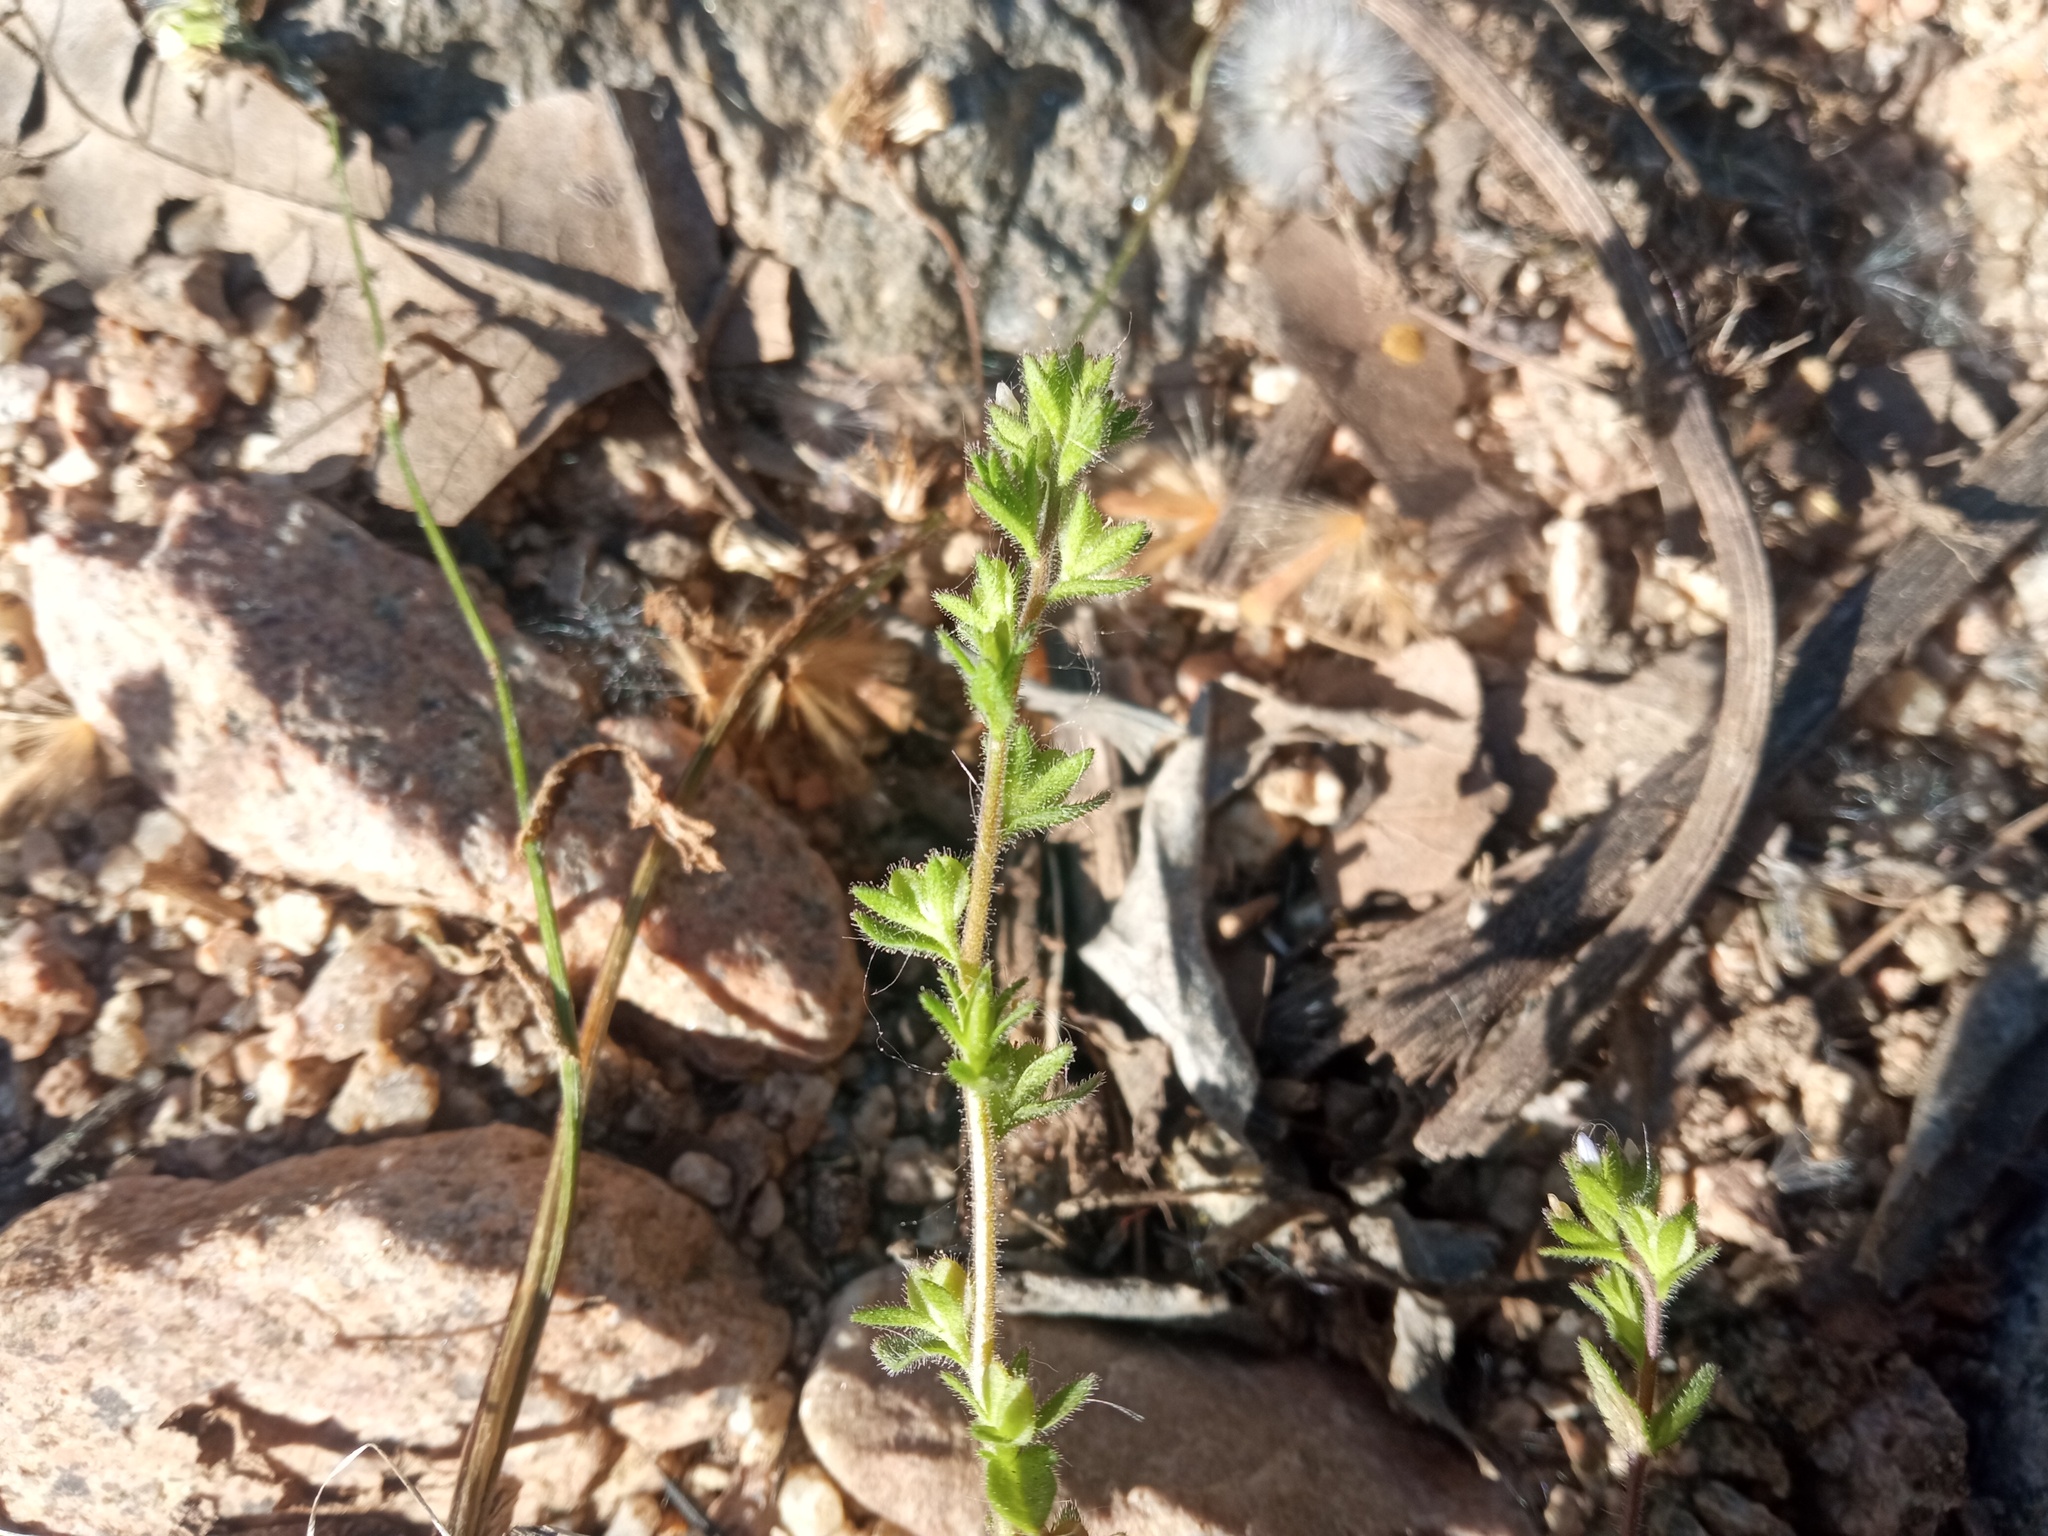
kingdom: Plantae
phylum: Tracheophyta
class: Magnoliopsida
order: Lamiales
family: Plantaginaceae
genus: Veronica
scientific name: Veronica arvensis
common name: Corn speedwell
